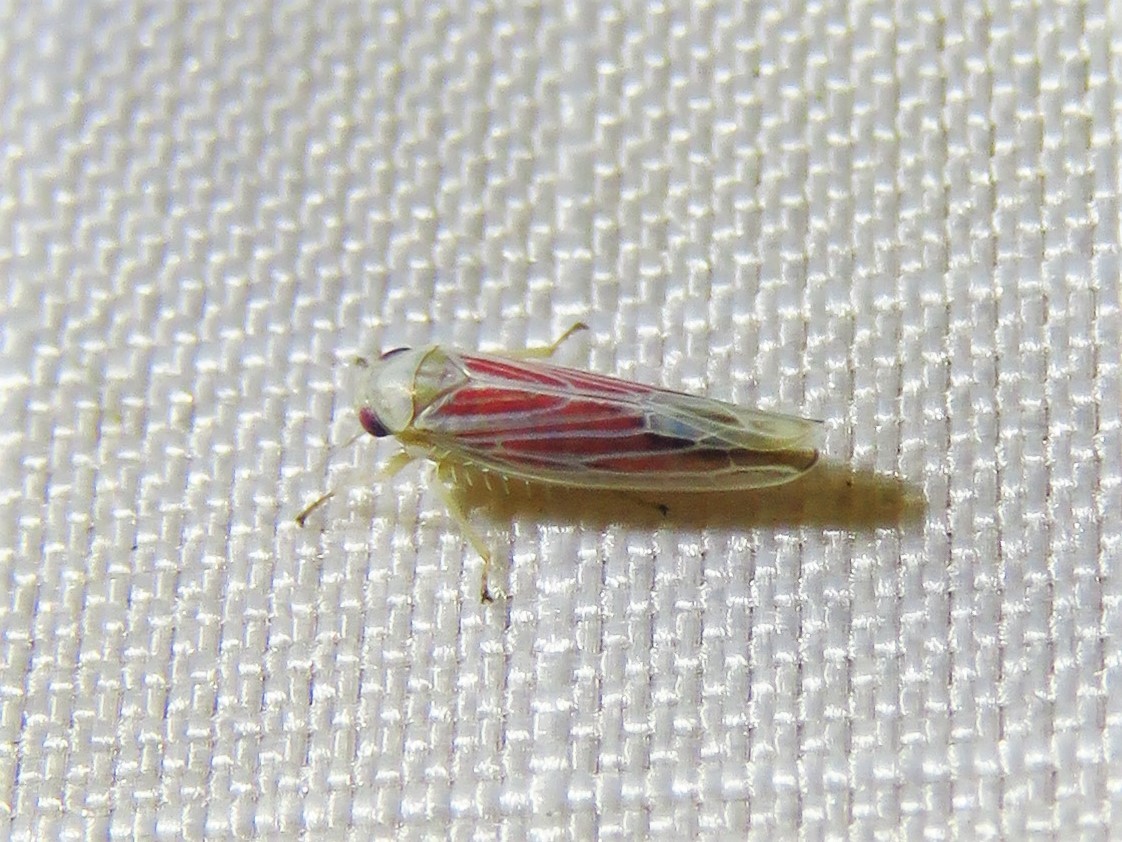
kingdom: Animalia
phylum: Arthropoda
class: Insecta
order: Hemiptera
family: Cicadellidae
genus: Balclutha
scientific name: Balclutha rubrostriata
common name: Red-streaked leafhopper
